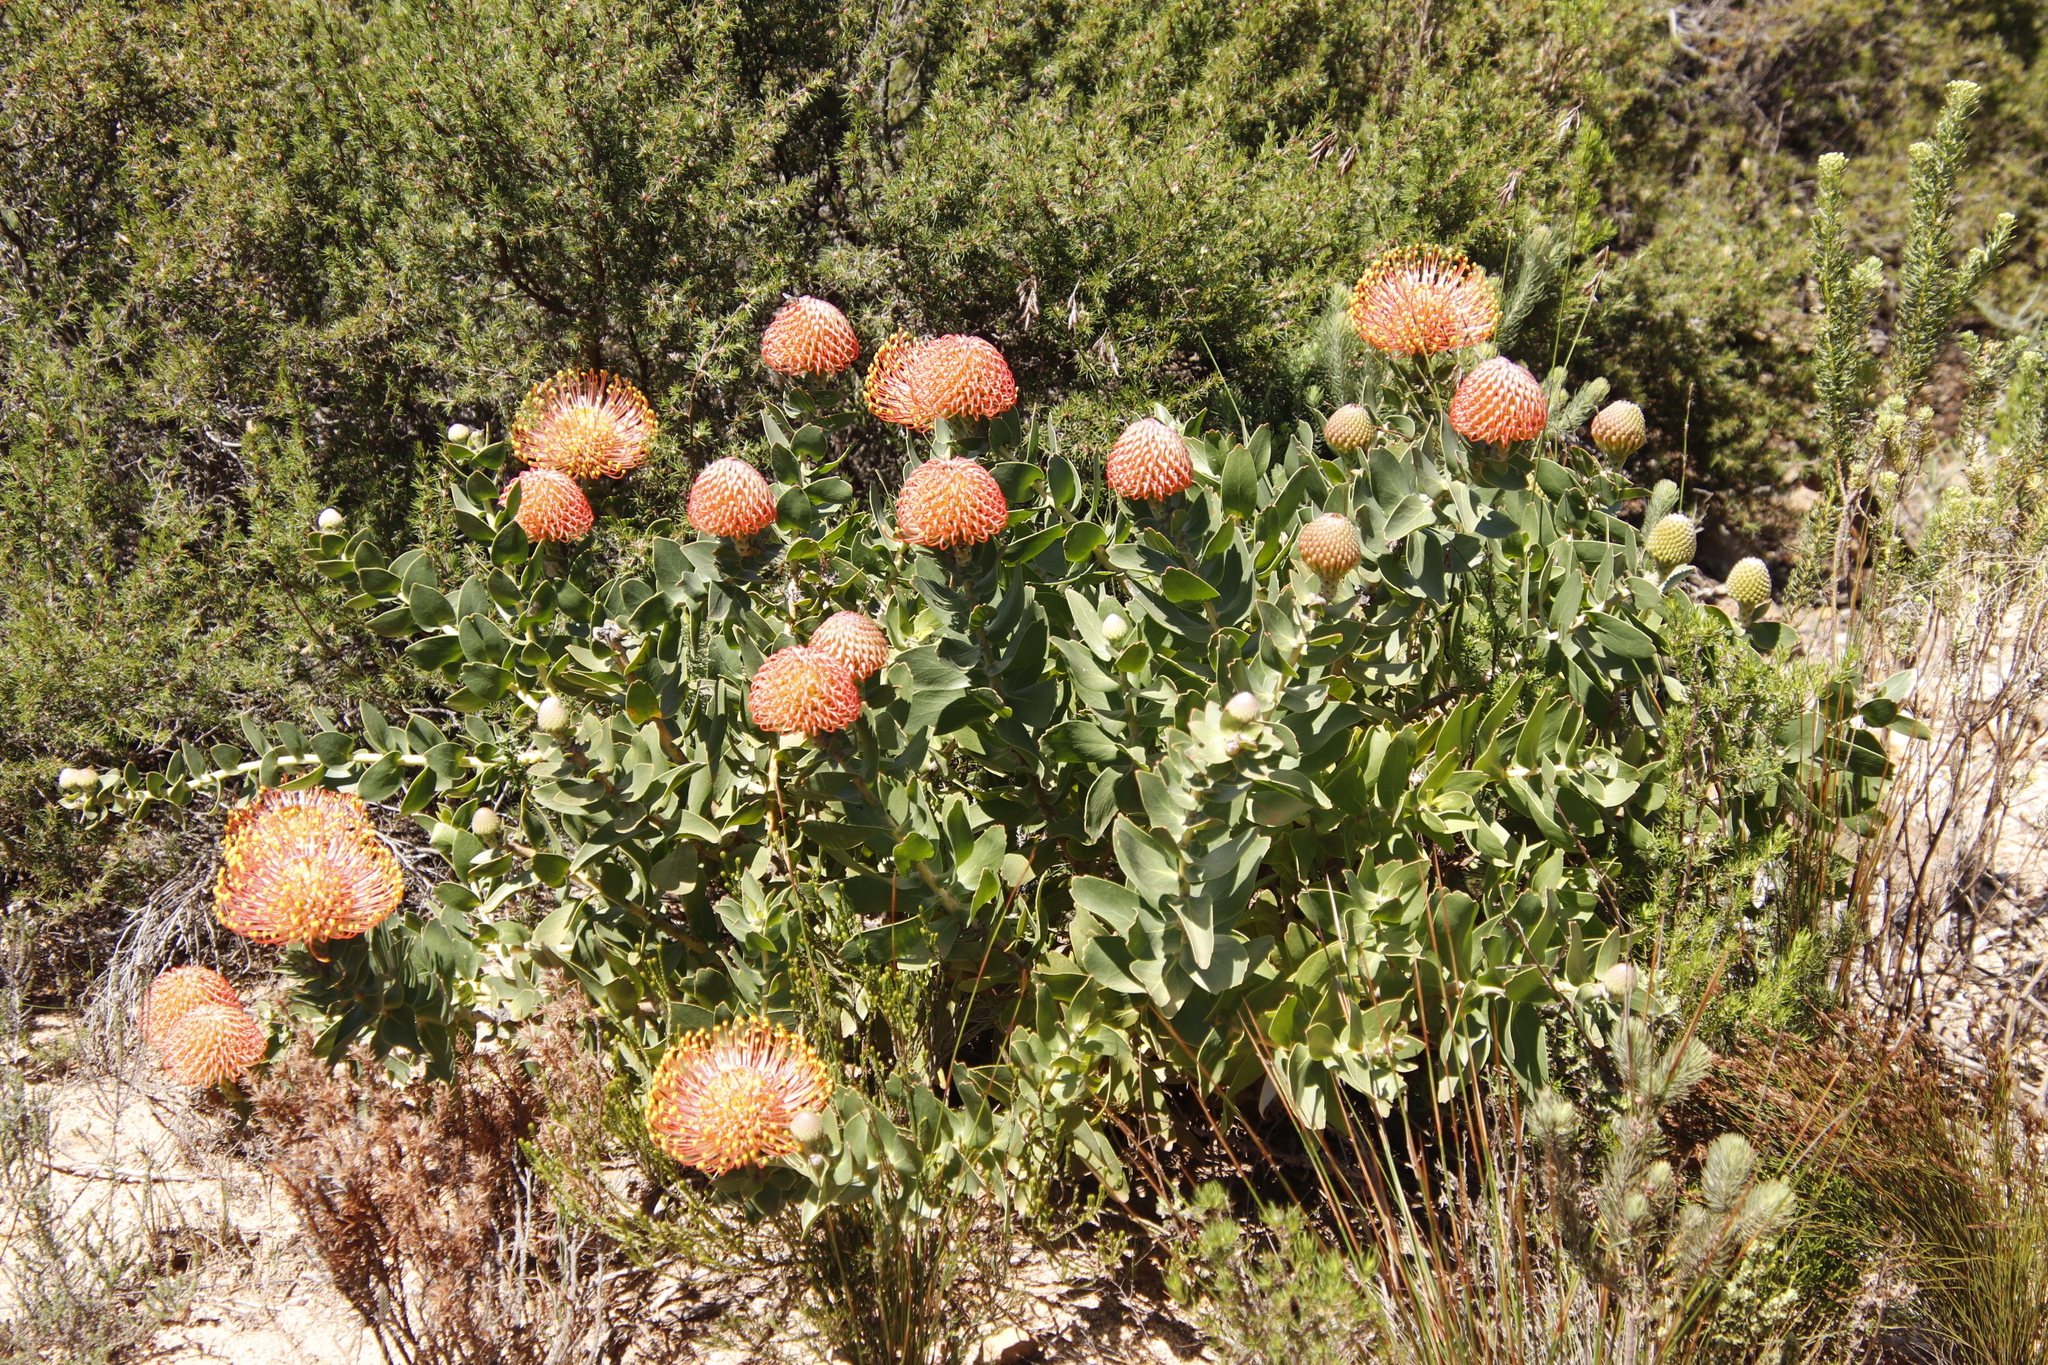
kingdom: Plantae
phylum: Tracheophyta
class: Magnoliopsida
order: Proteales
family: Proteaceae
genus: Leucospermum
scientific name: Leucospermum cordifolium
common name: Red pincushion-protea
